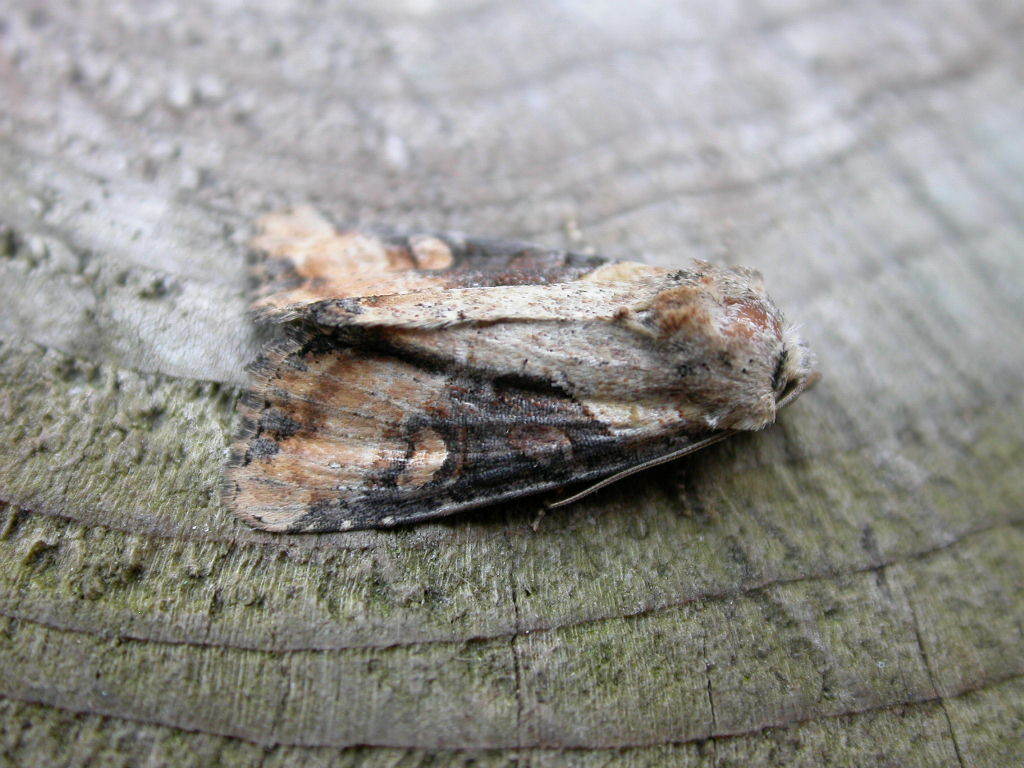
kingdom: Animalia
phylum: Arthropoda
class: Insecta
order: Lepidoptera
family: Noctuidae
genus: Lateroligia
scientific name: Lateroligia ophiogramma
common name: Double lobed
